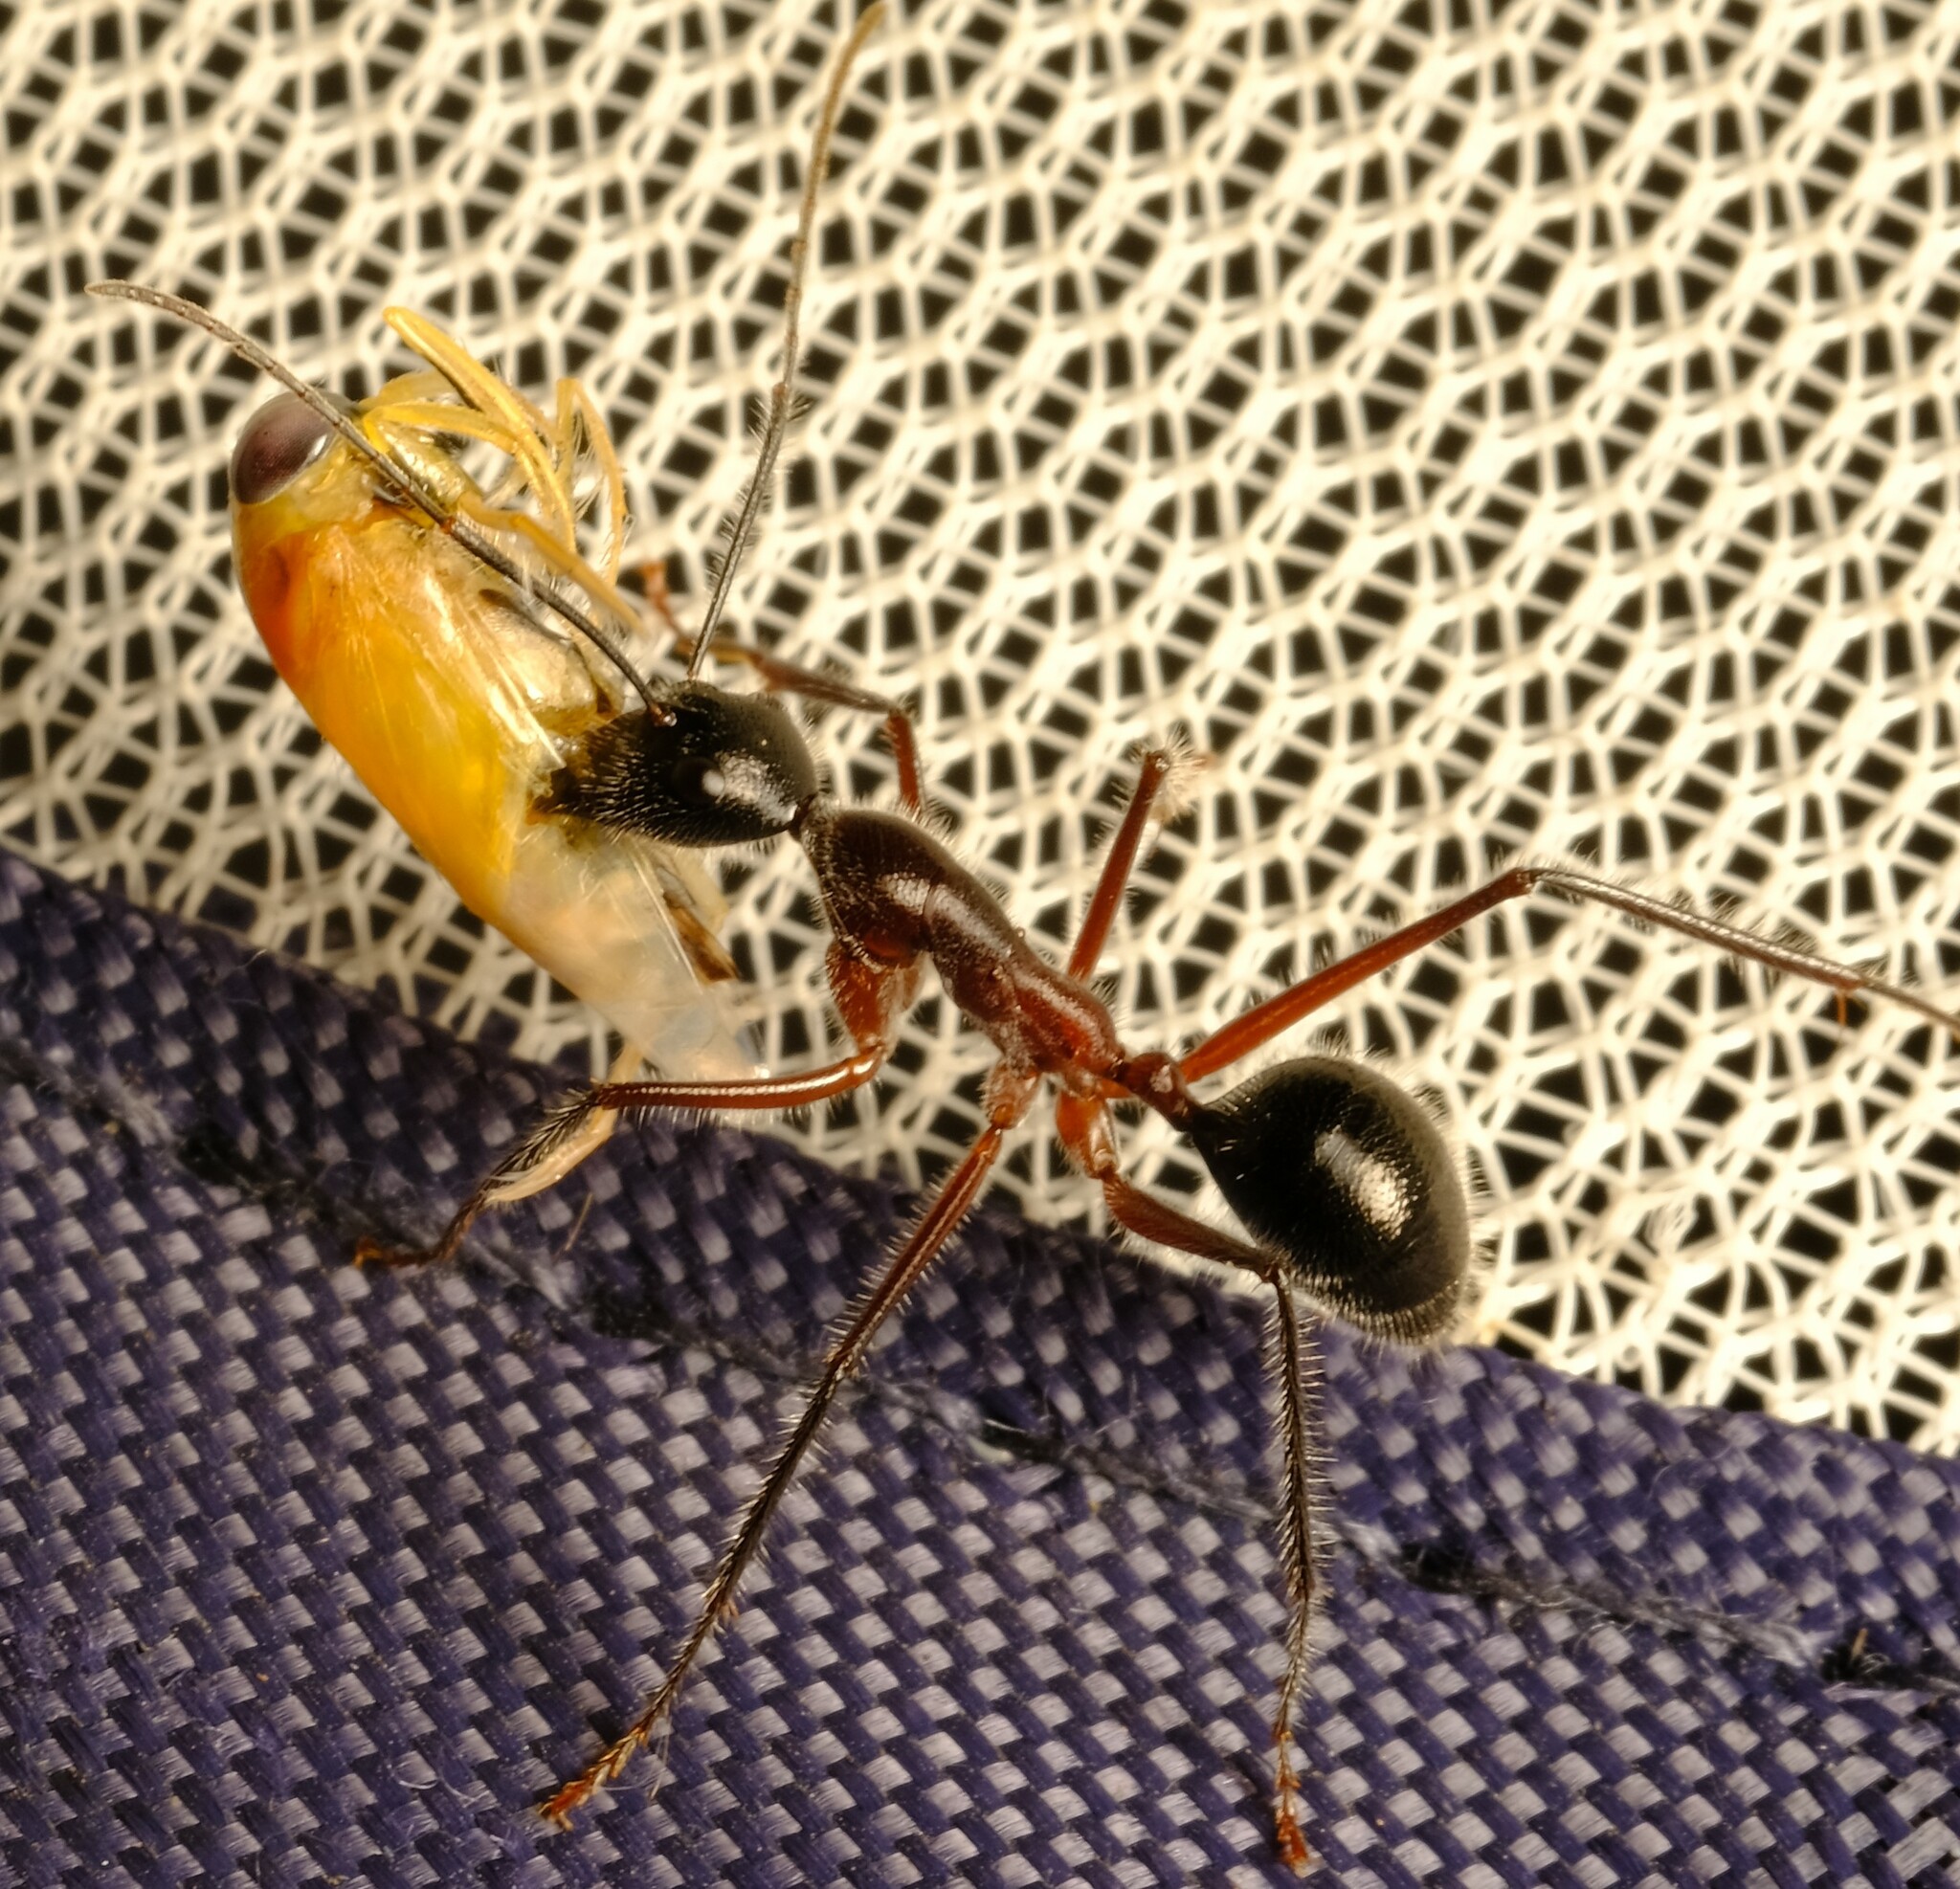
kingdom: Animalia
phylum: Arthropoda
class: Insecta
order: Hymenoptera
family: Formicidae
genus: Camponotus
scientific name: Camponotus intrepidus
